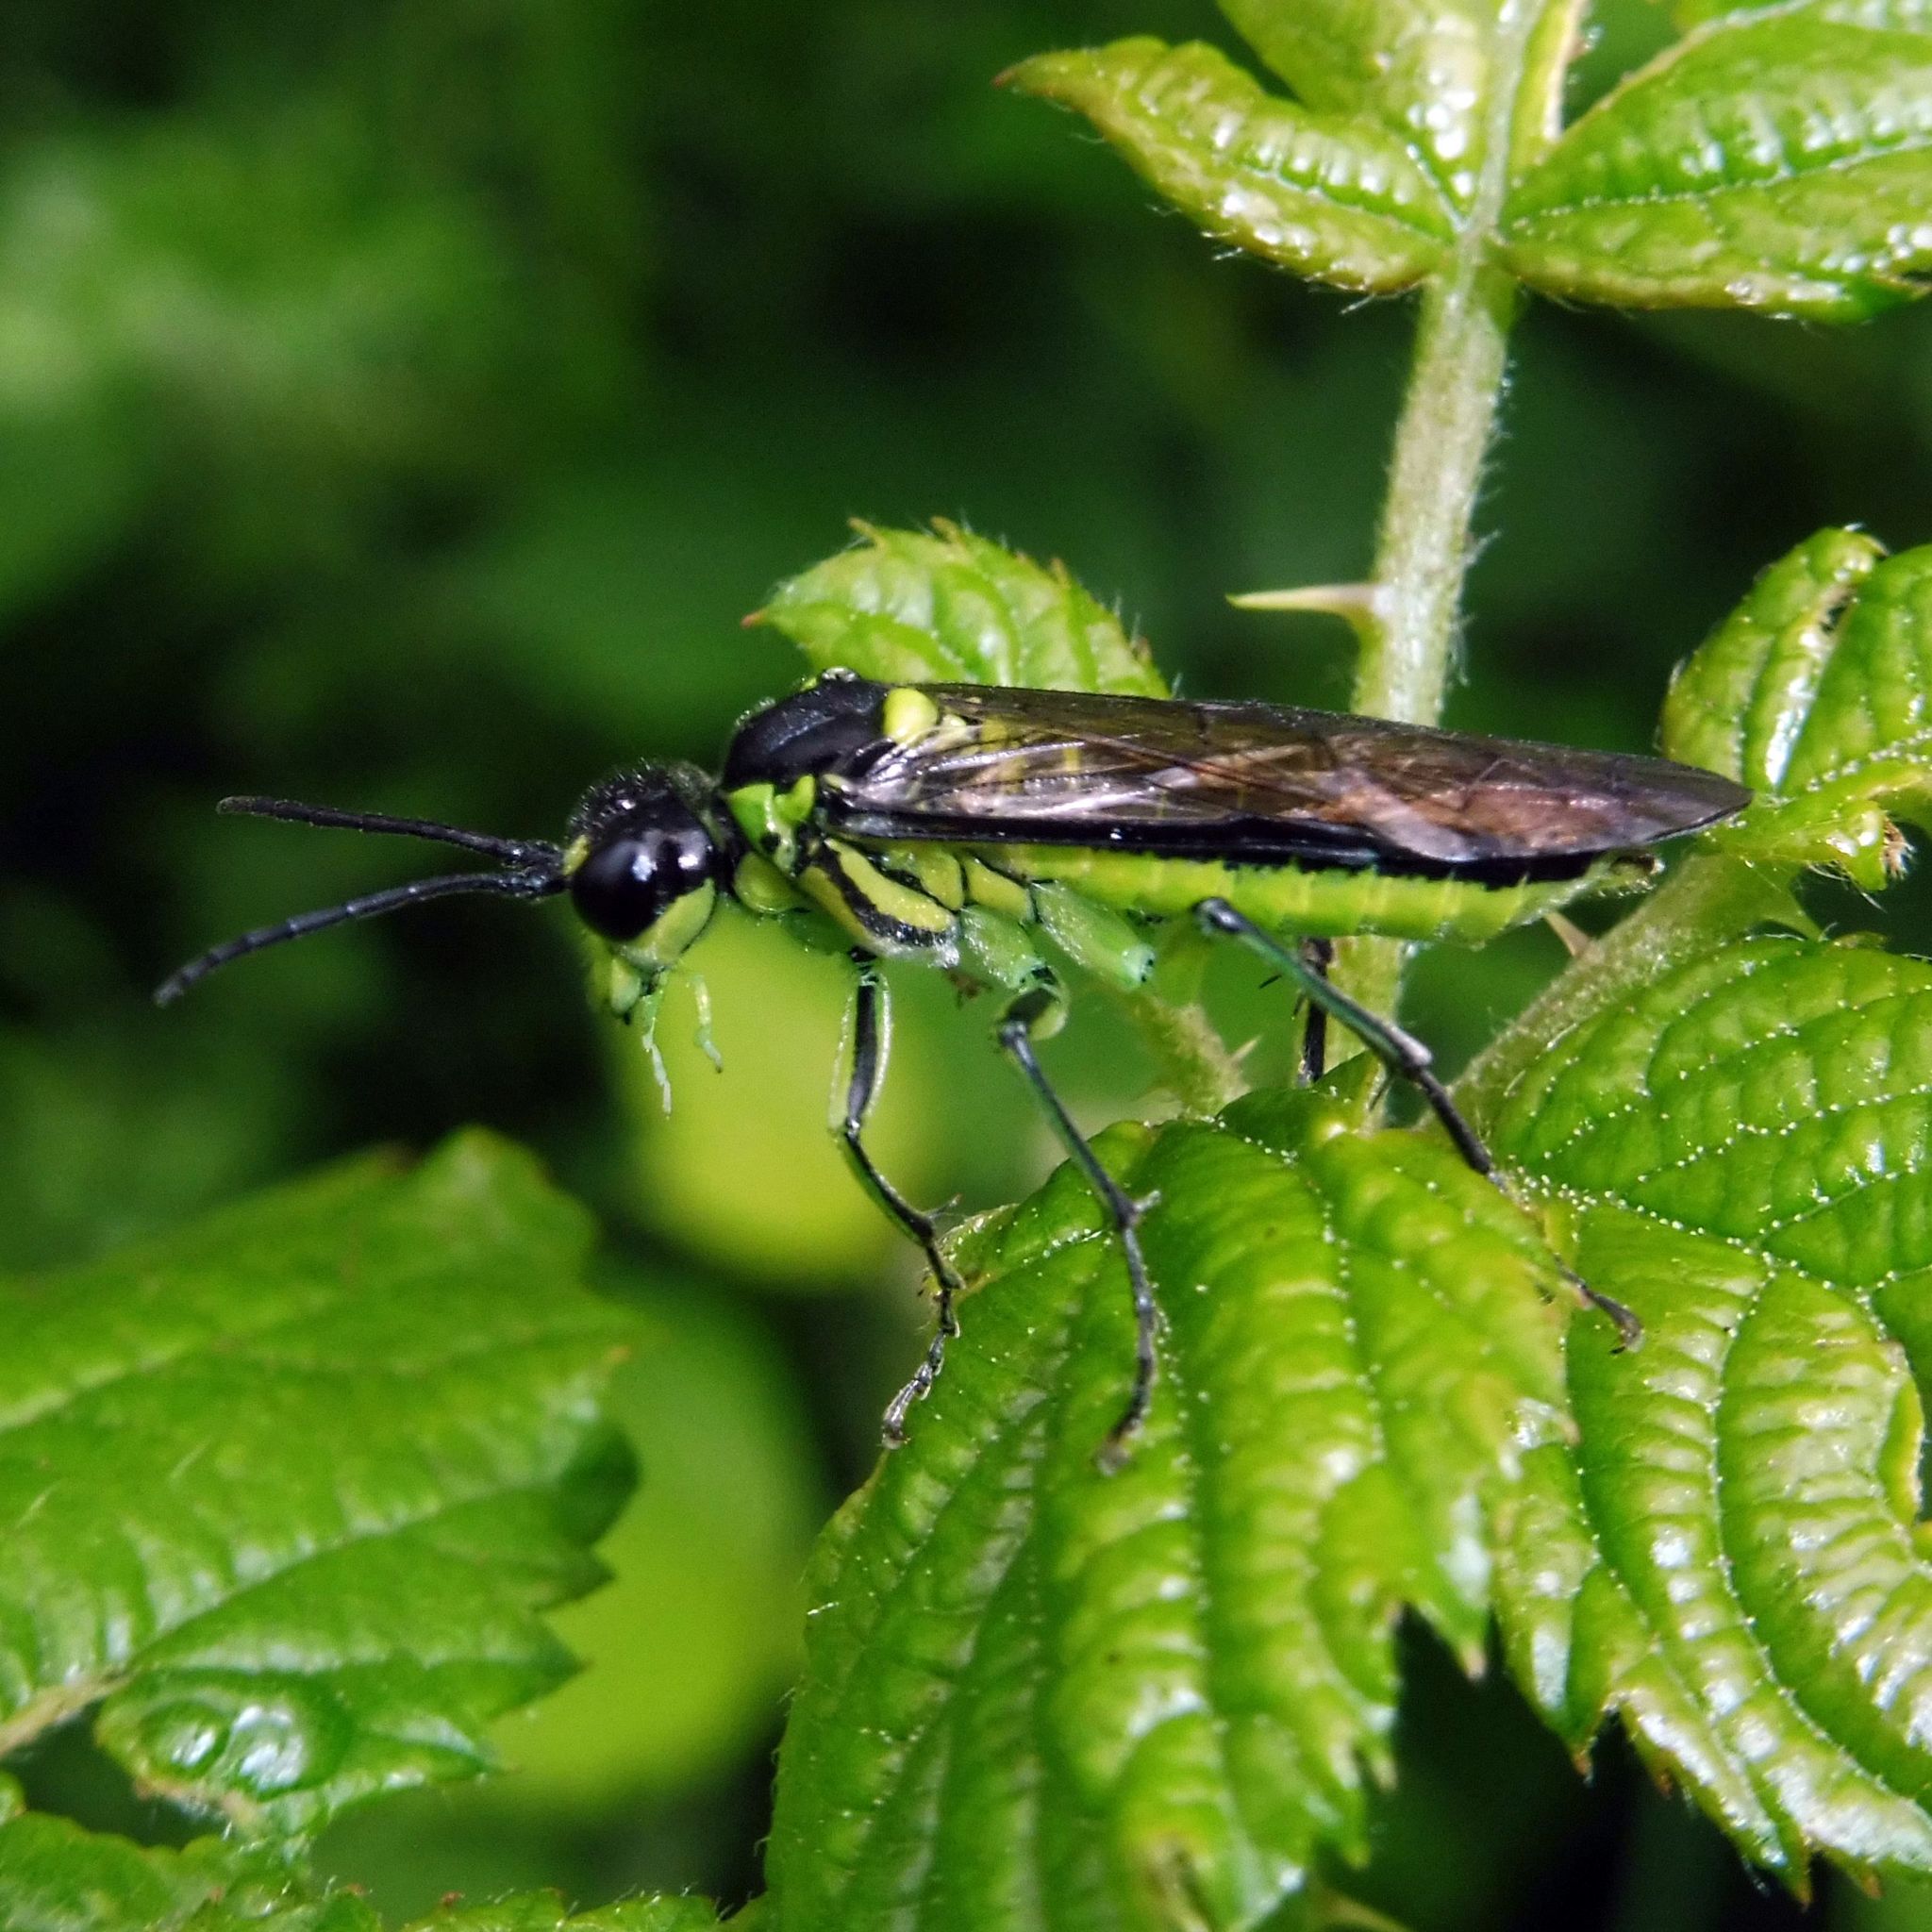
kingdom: Animalia
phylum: Arthropoda
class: Insecta
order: Hymenoptera
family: Tenthredinidae
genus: Tenthredo
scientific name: Tenthredo mesomela
